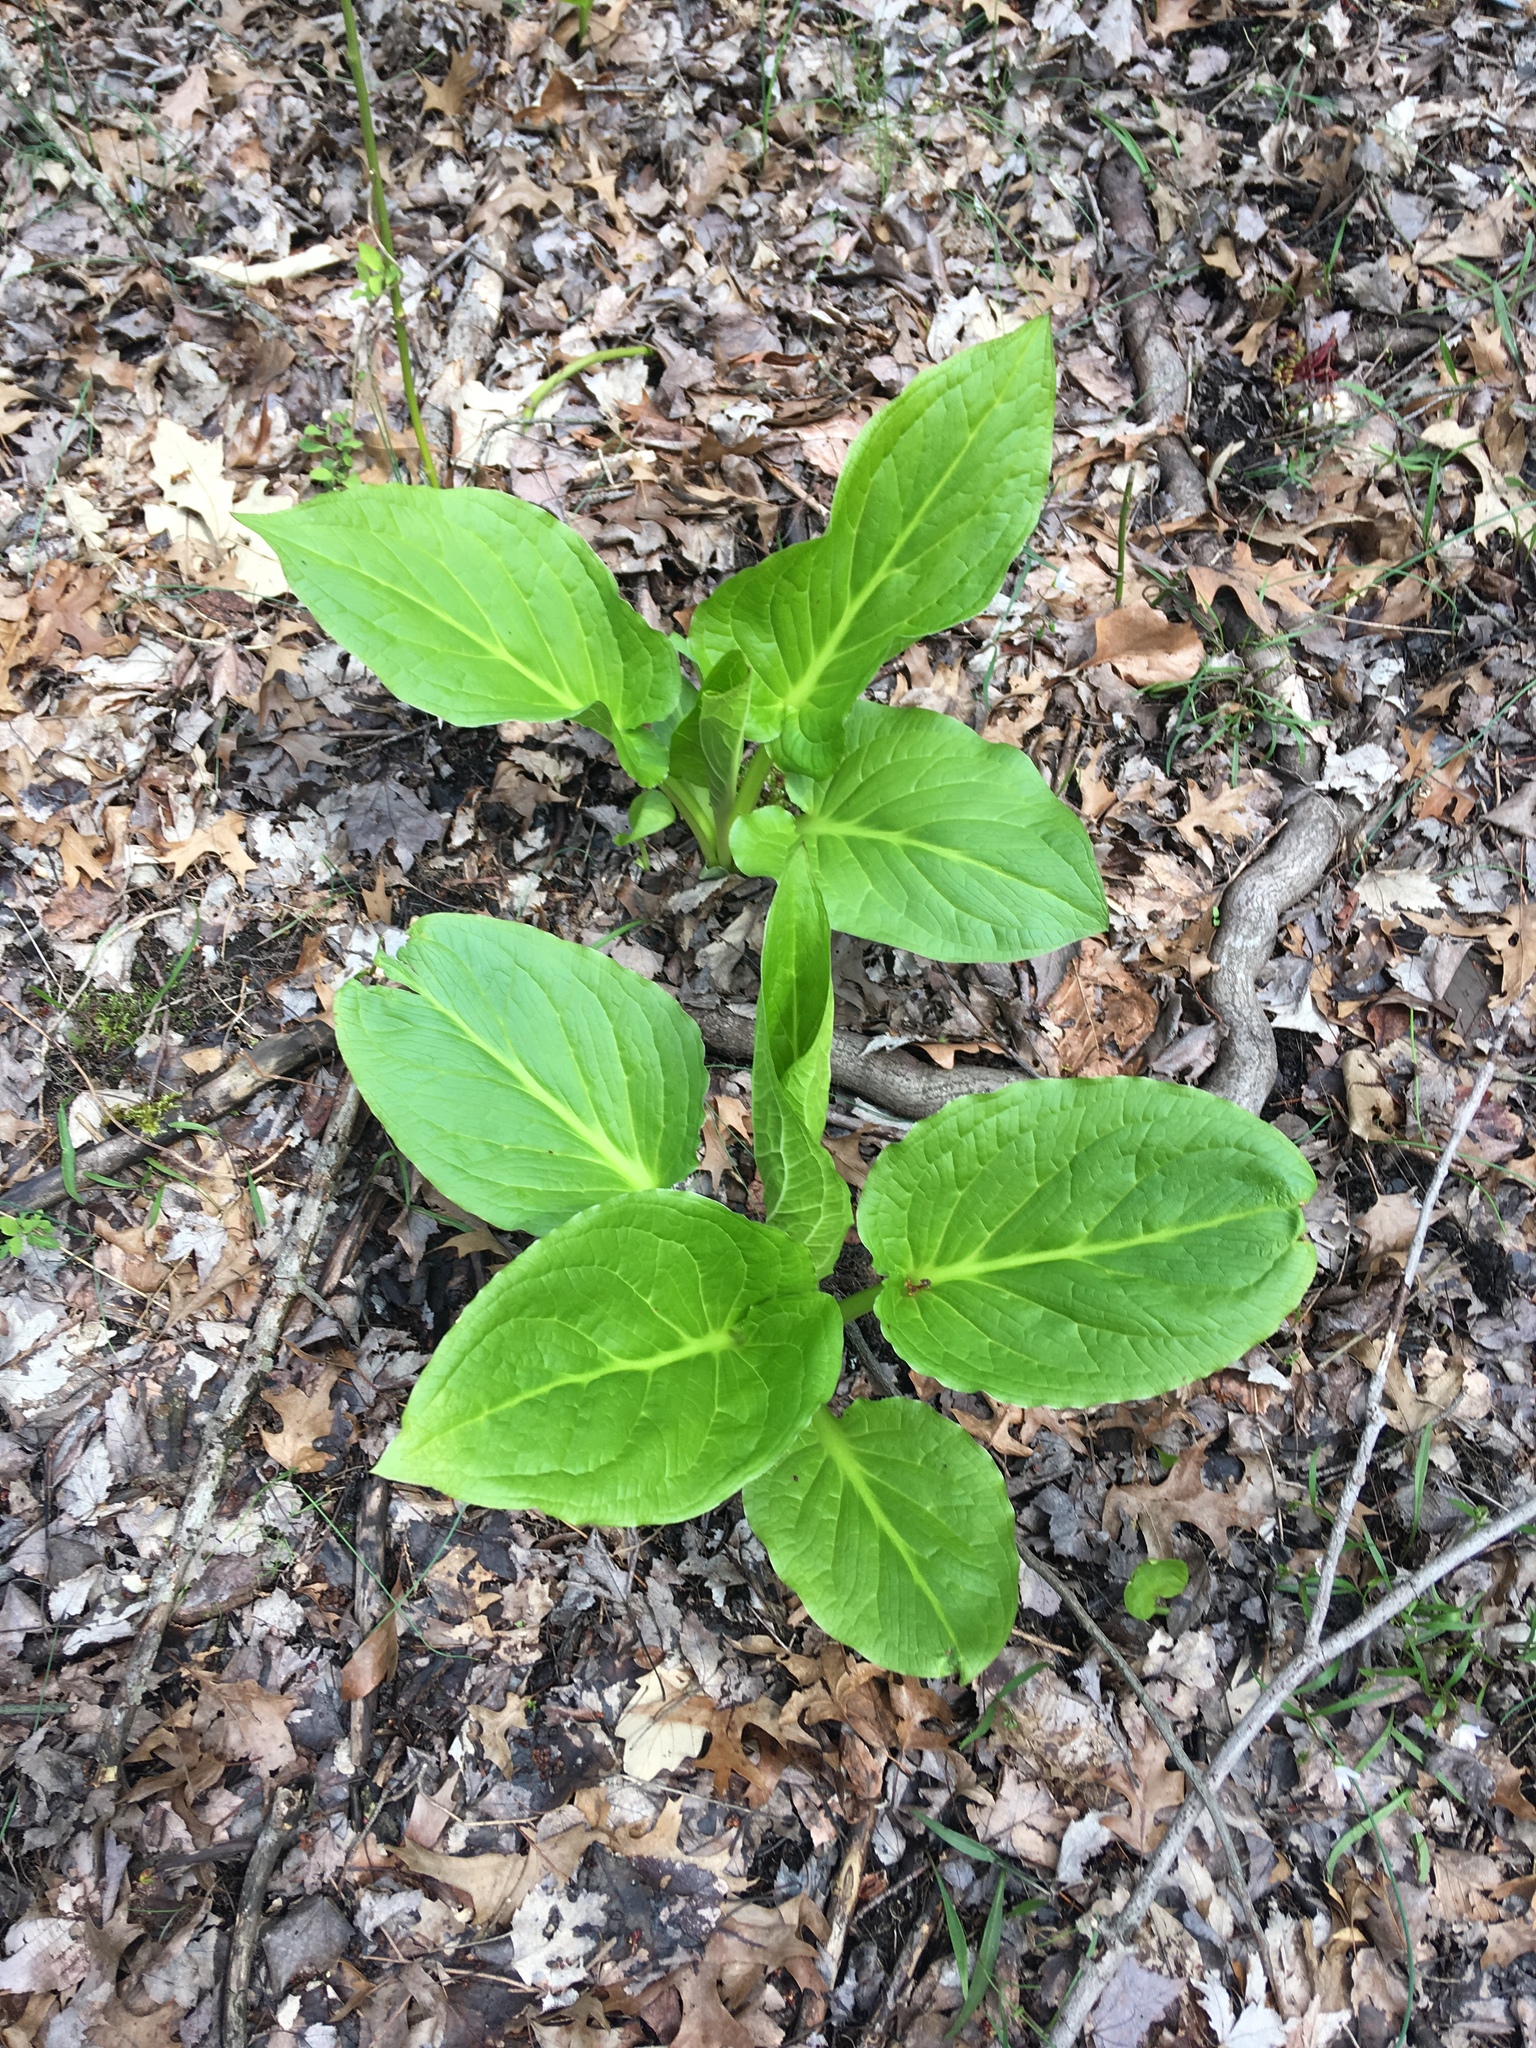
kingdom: Plantae
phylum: Tracheophyta
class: Liliopsida
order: Alismatales
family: Araceae
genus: Symplocarpus
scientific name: Symplocarpus foetidus
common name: Eastern skunk cabbage
